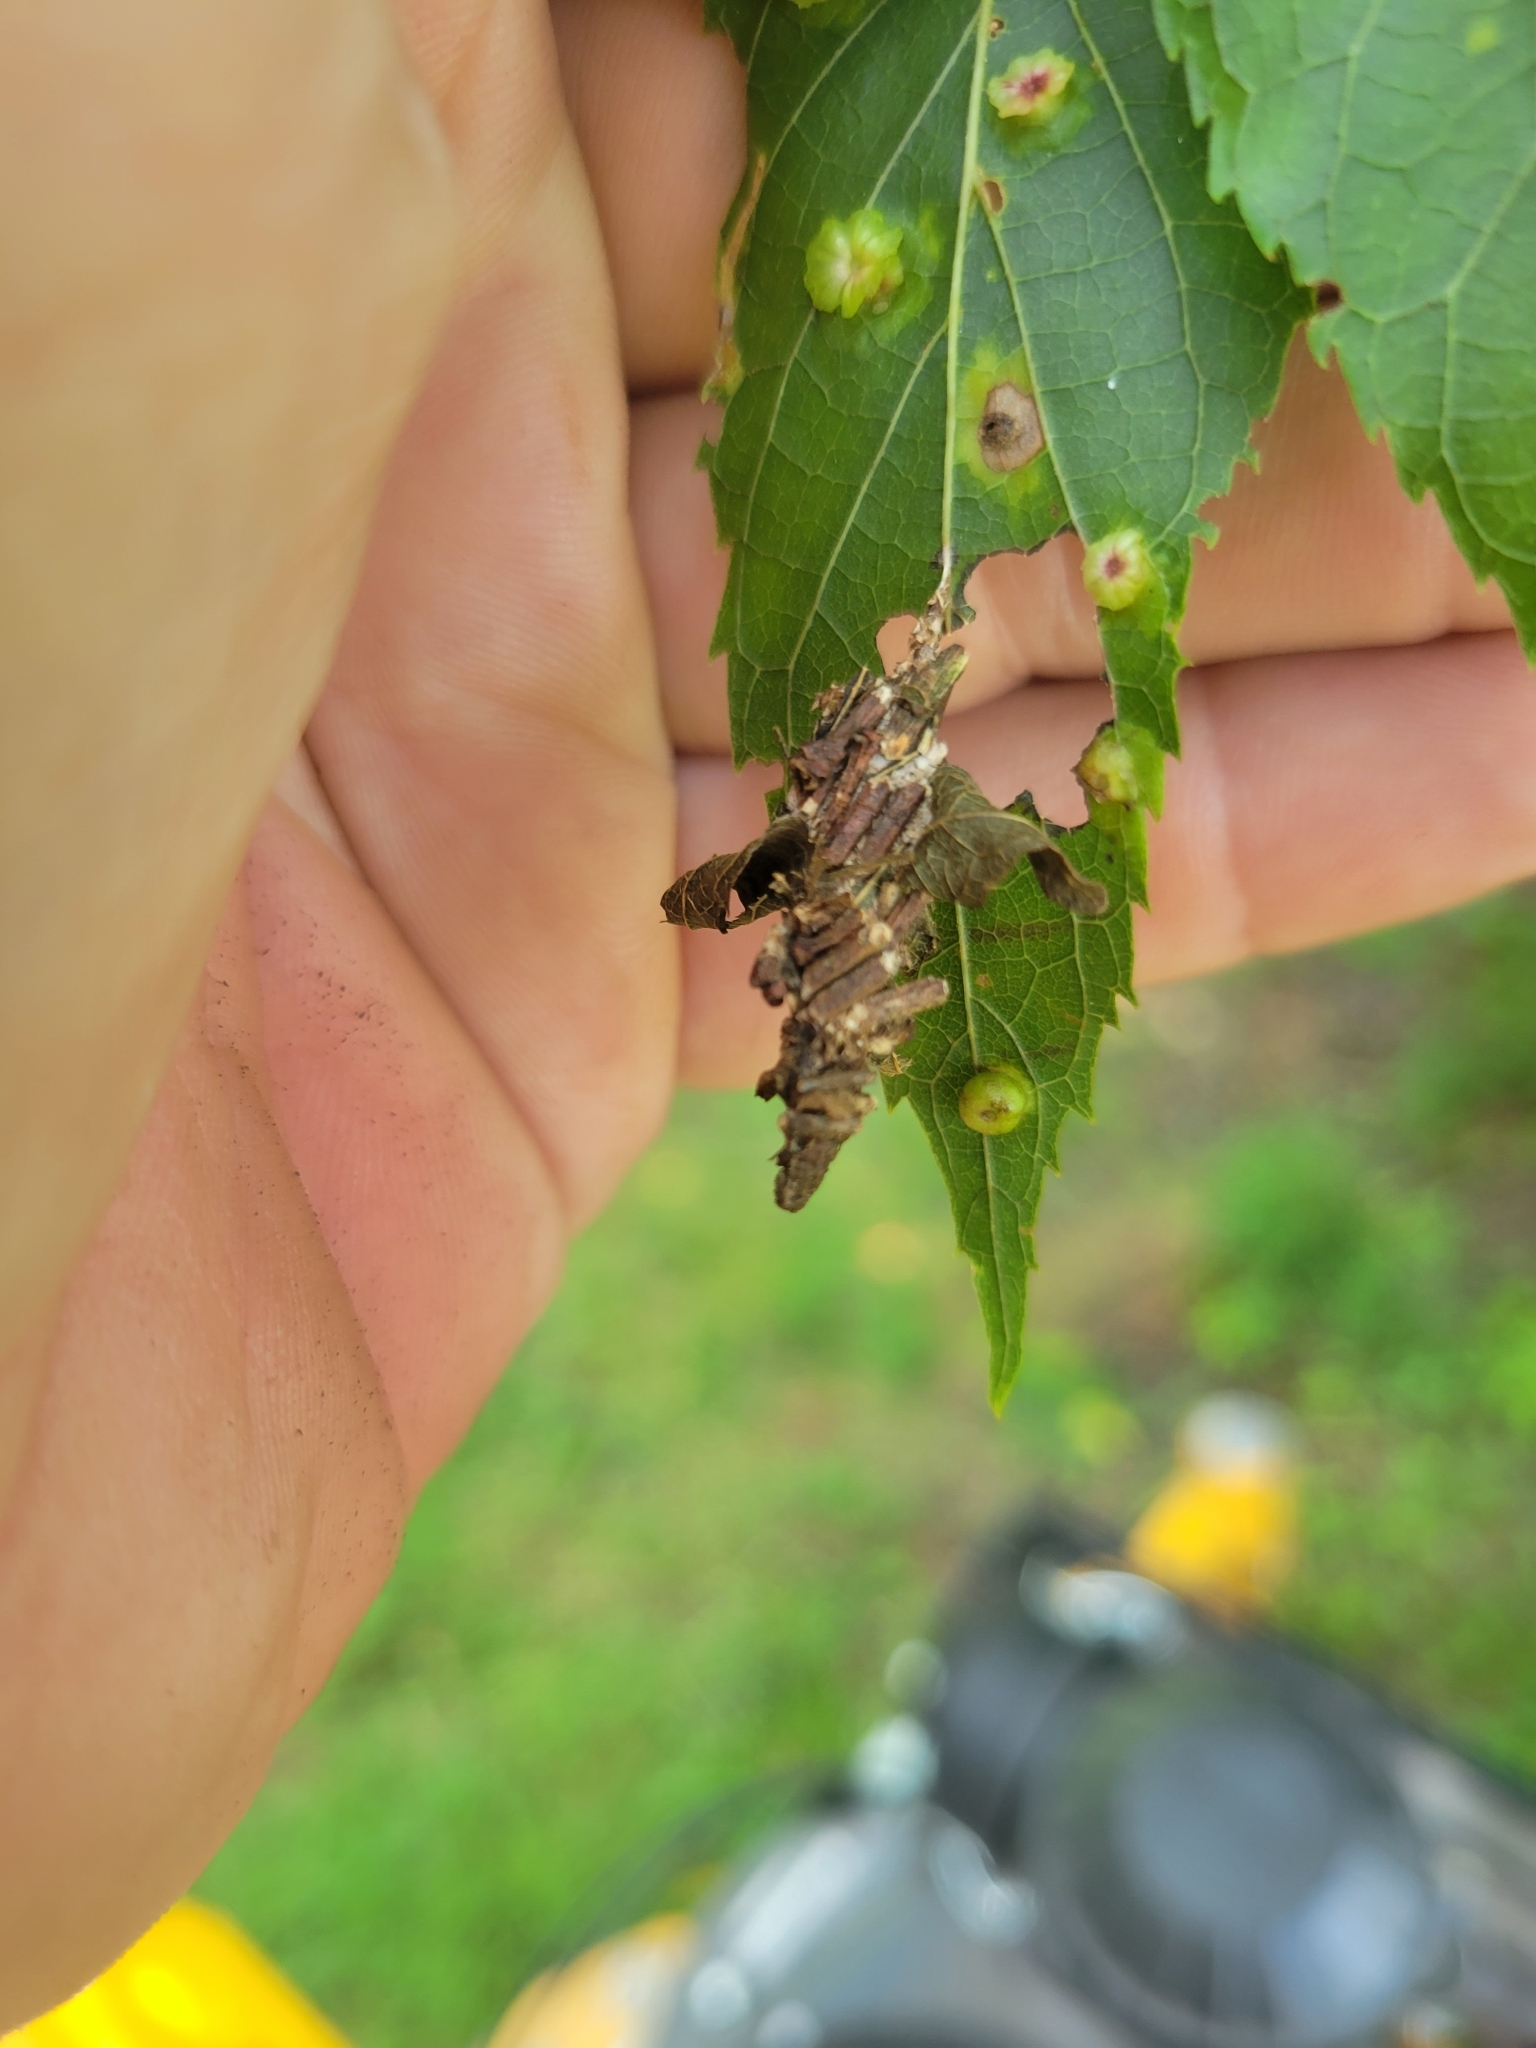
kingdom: Animalia
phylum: Arthropoda
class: Insecta
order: Lepidoptera
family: Psychidae
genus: Oiketicus
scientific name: Oiketicus
